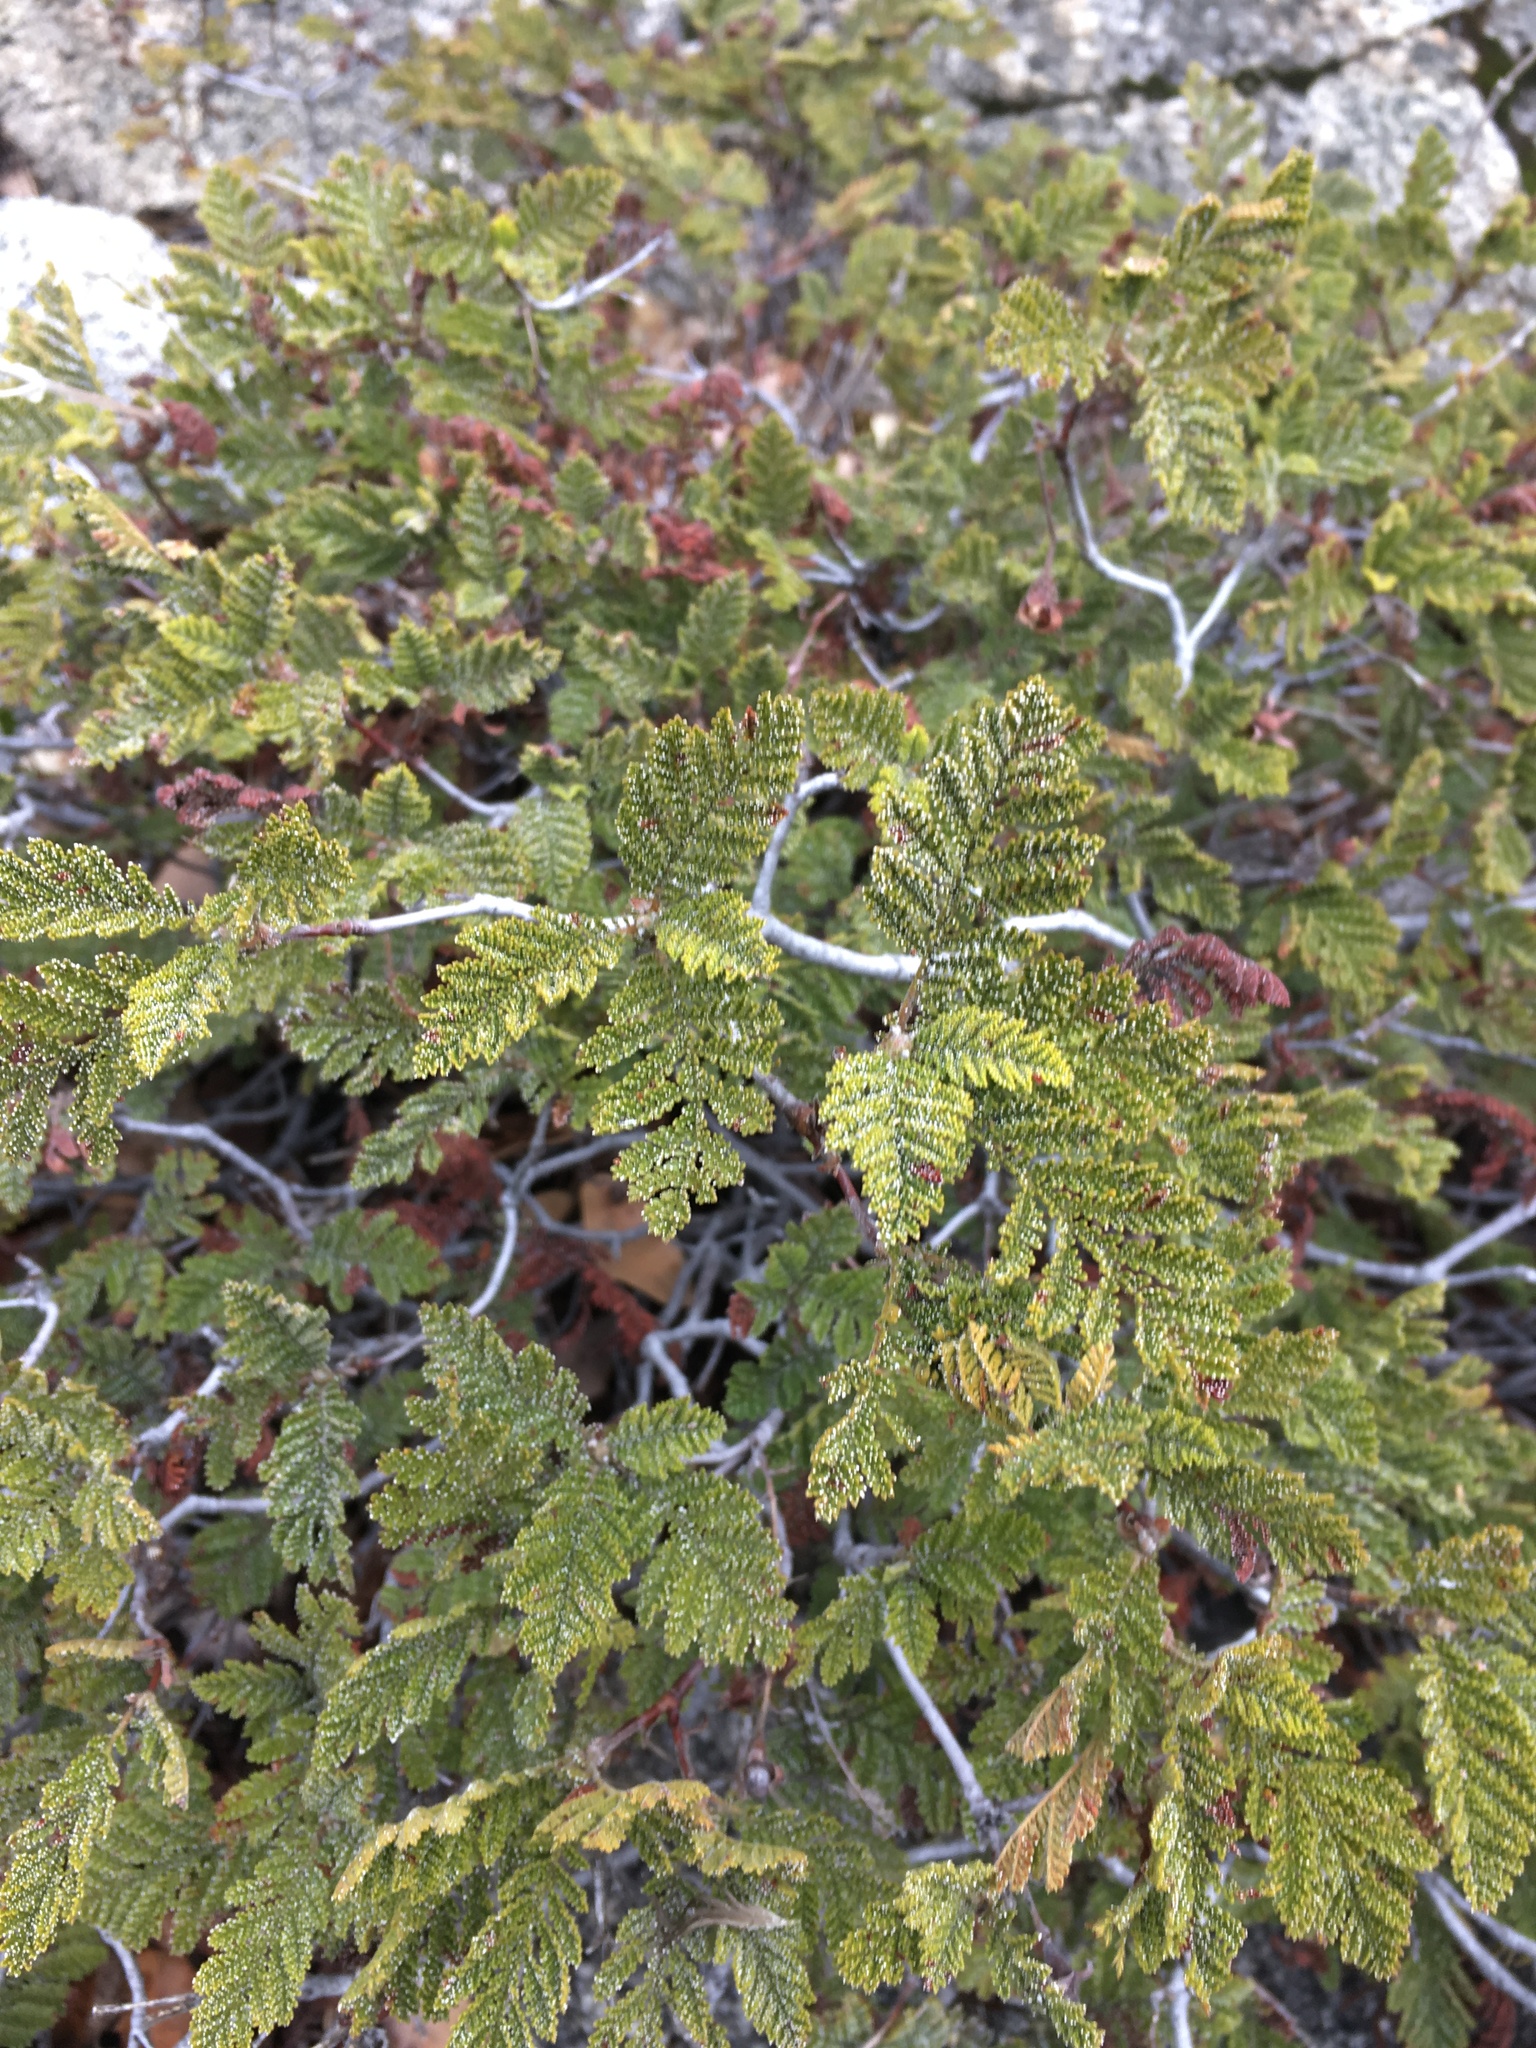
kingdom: Plantae
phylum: Tracheophyta
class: Magnoliopsida
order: Rosales
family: Rosaceae
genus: Chamaebatia
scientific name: Chamaebatia foliolosa
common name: Mountain misery
